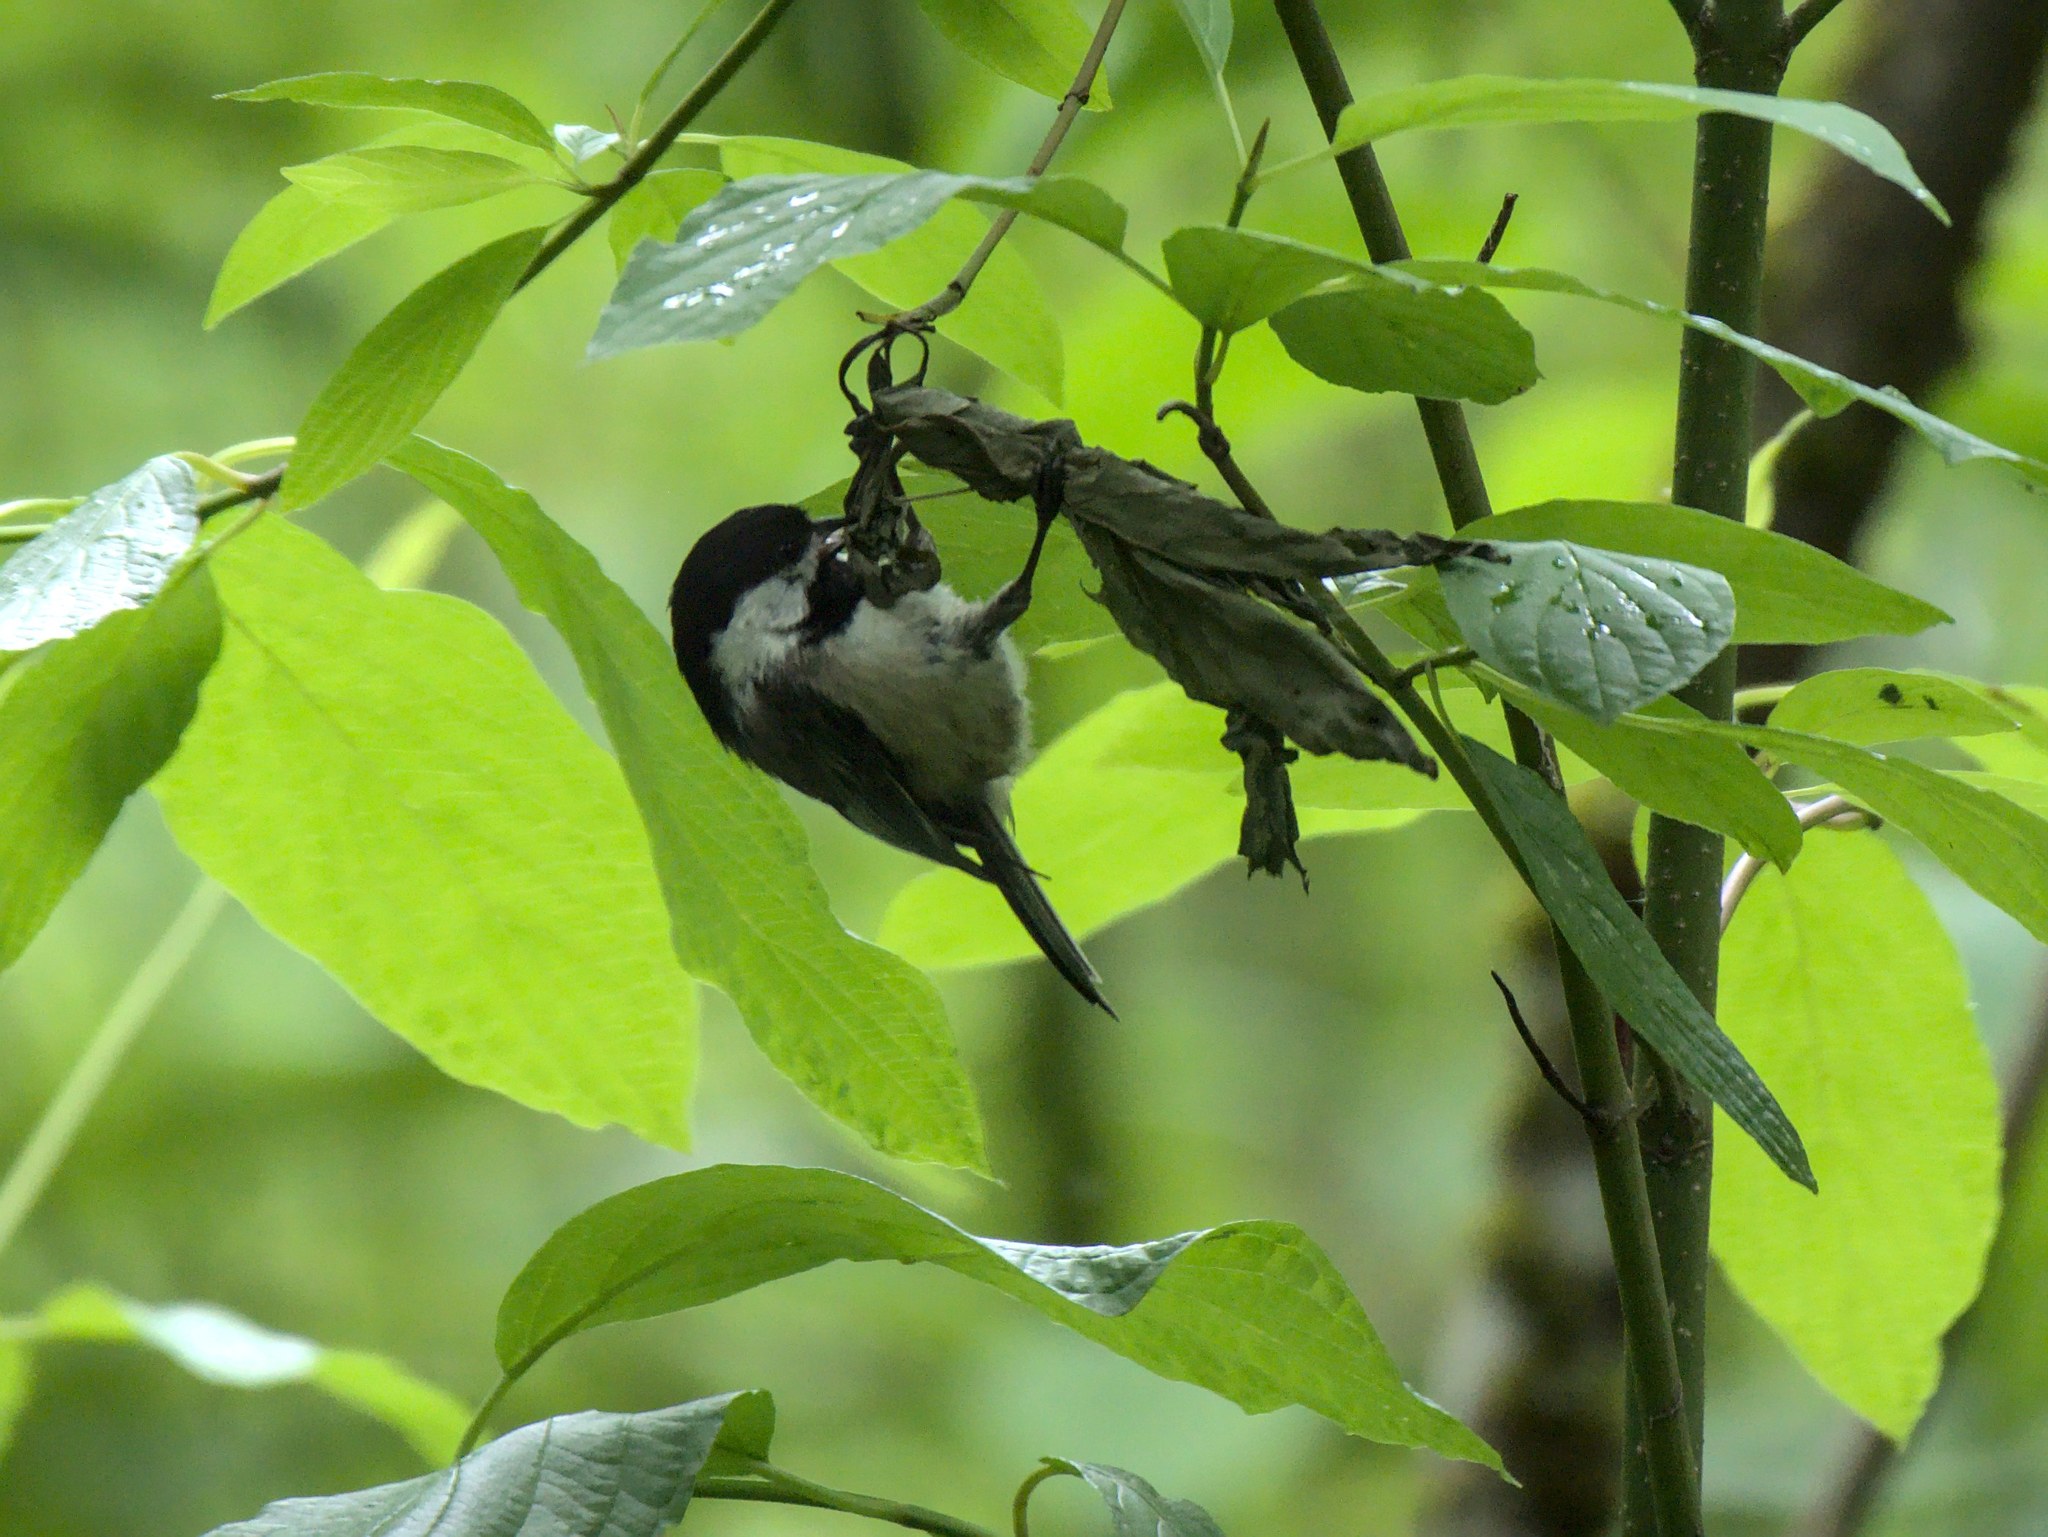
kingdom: Animalia
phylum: Chordata
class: Aves
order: Passeriformes
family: Paridae
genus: Poecile
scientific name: Poecile atricapillus
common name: Black-capped chickadee
